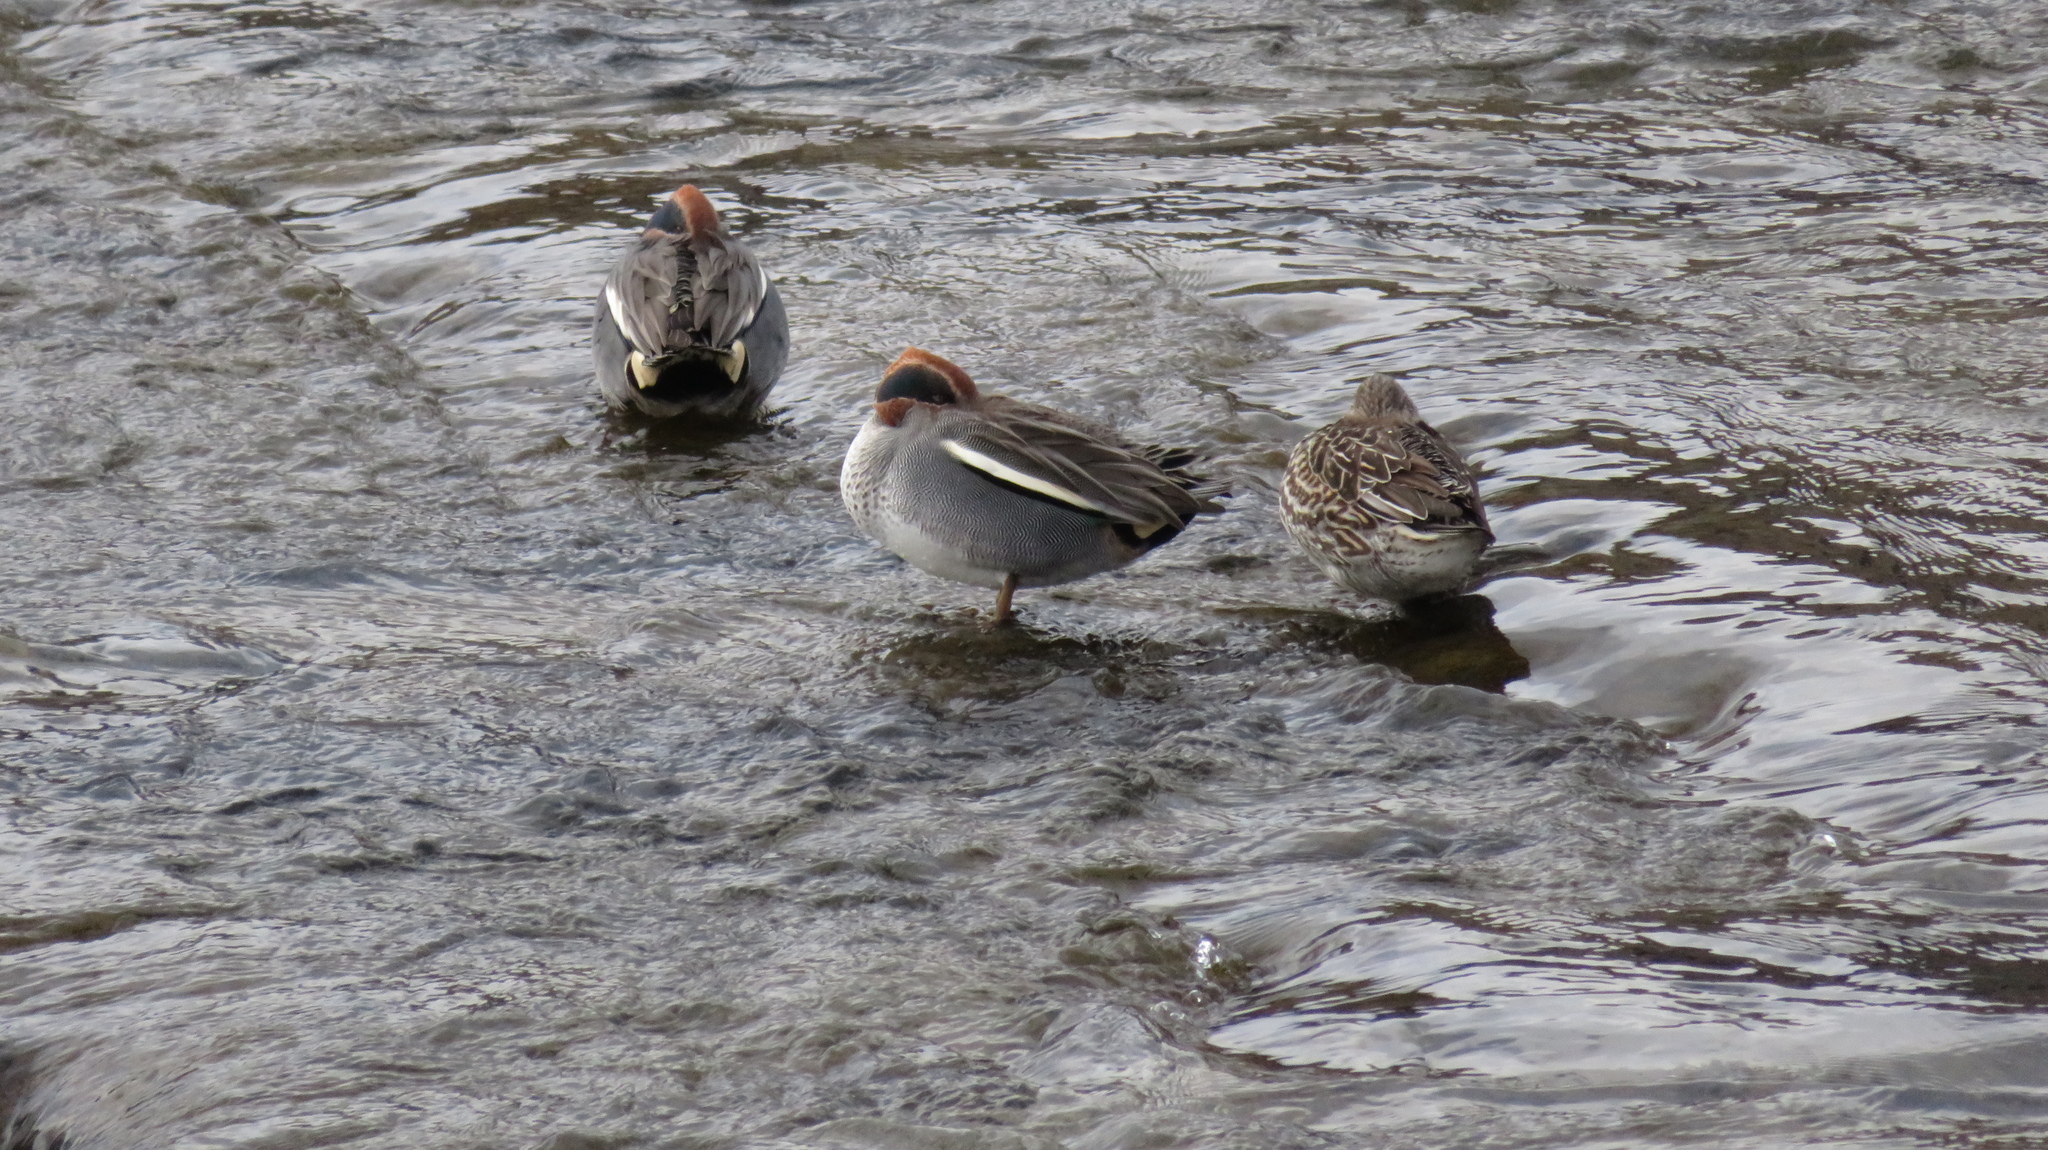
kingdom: Animalia
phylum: Chordata
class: Aves
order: Anseriformes
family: Anatidae
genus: Anas
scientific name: Anas crecca
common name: Eurasian teal
